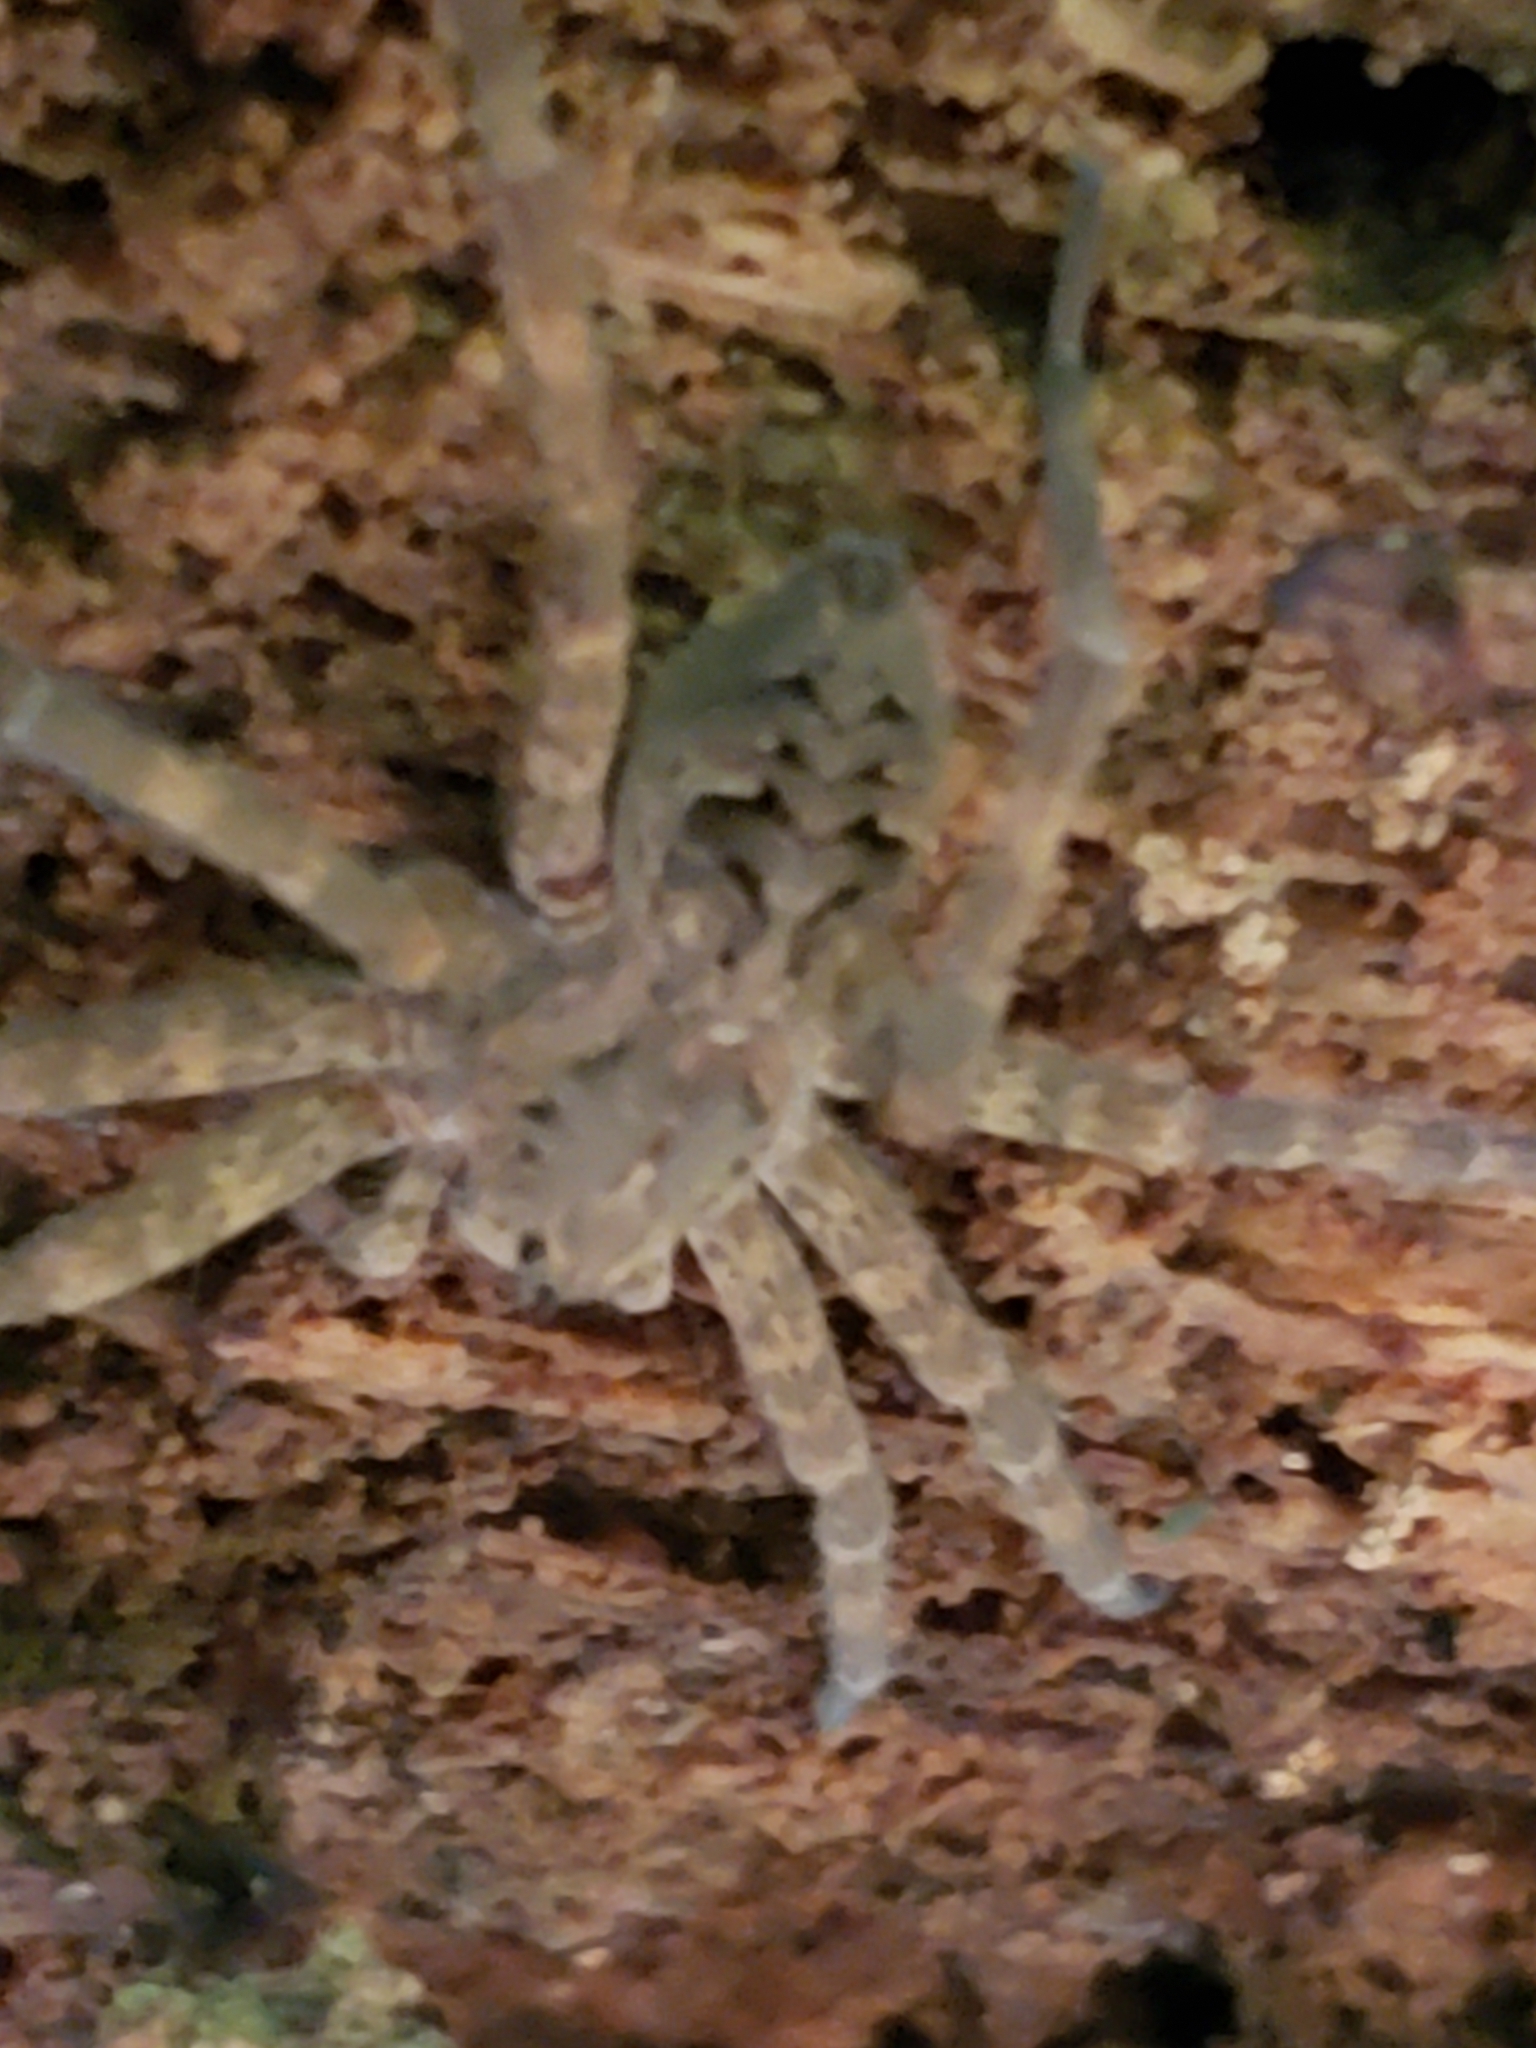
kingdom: Animalia
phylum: Arthropoda
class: Arachnida
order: Araneae
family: Pisauridae
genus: Dolomedes
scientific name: Dolomedes tenebrosus
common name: Dark fishing spider
